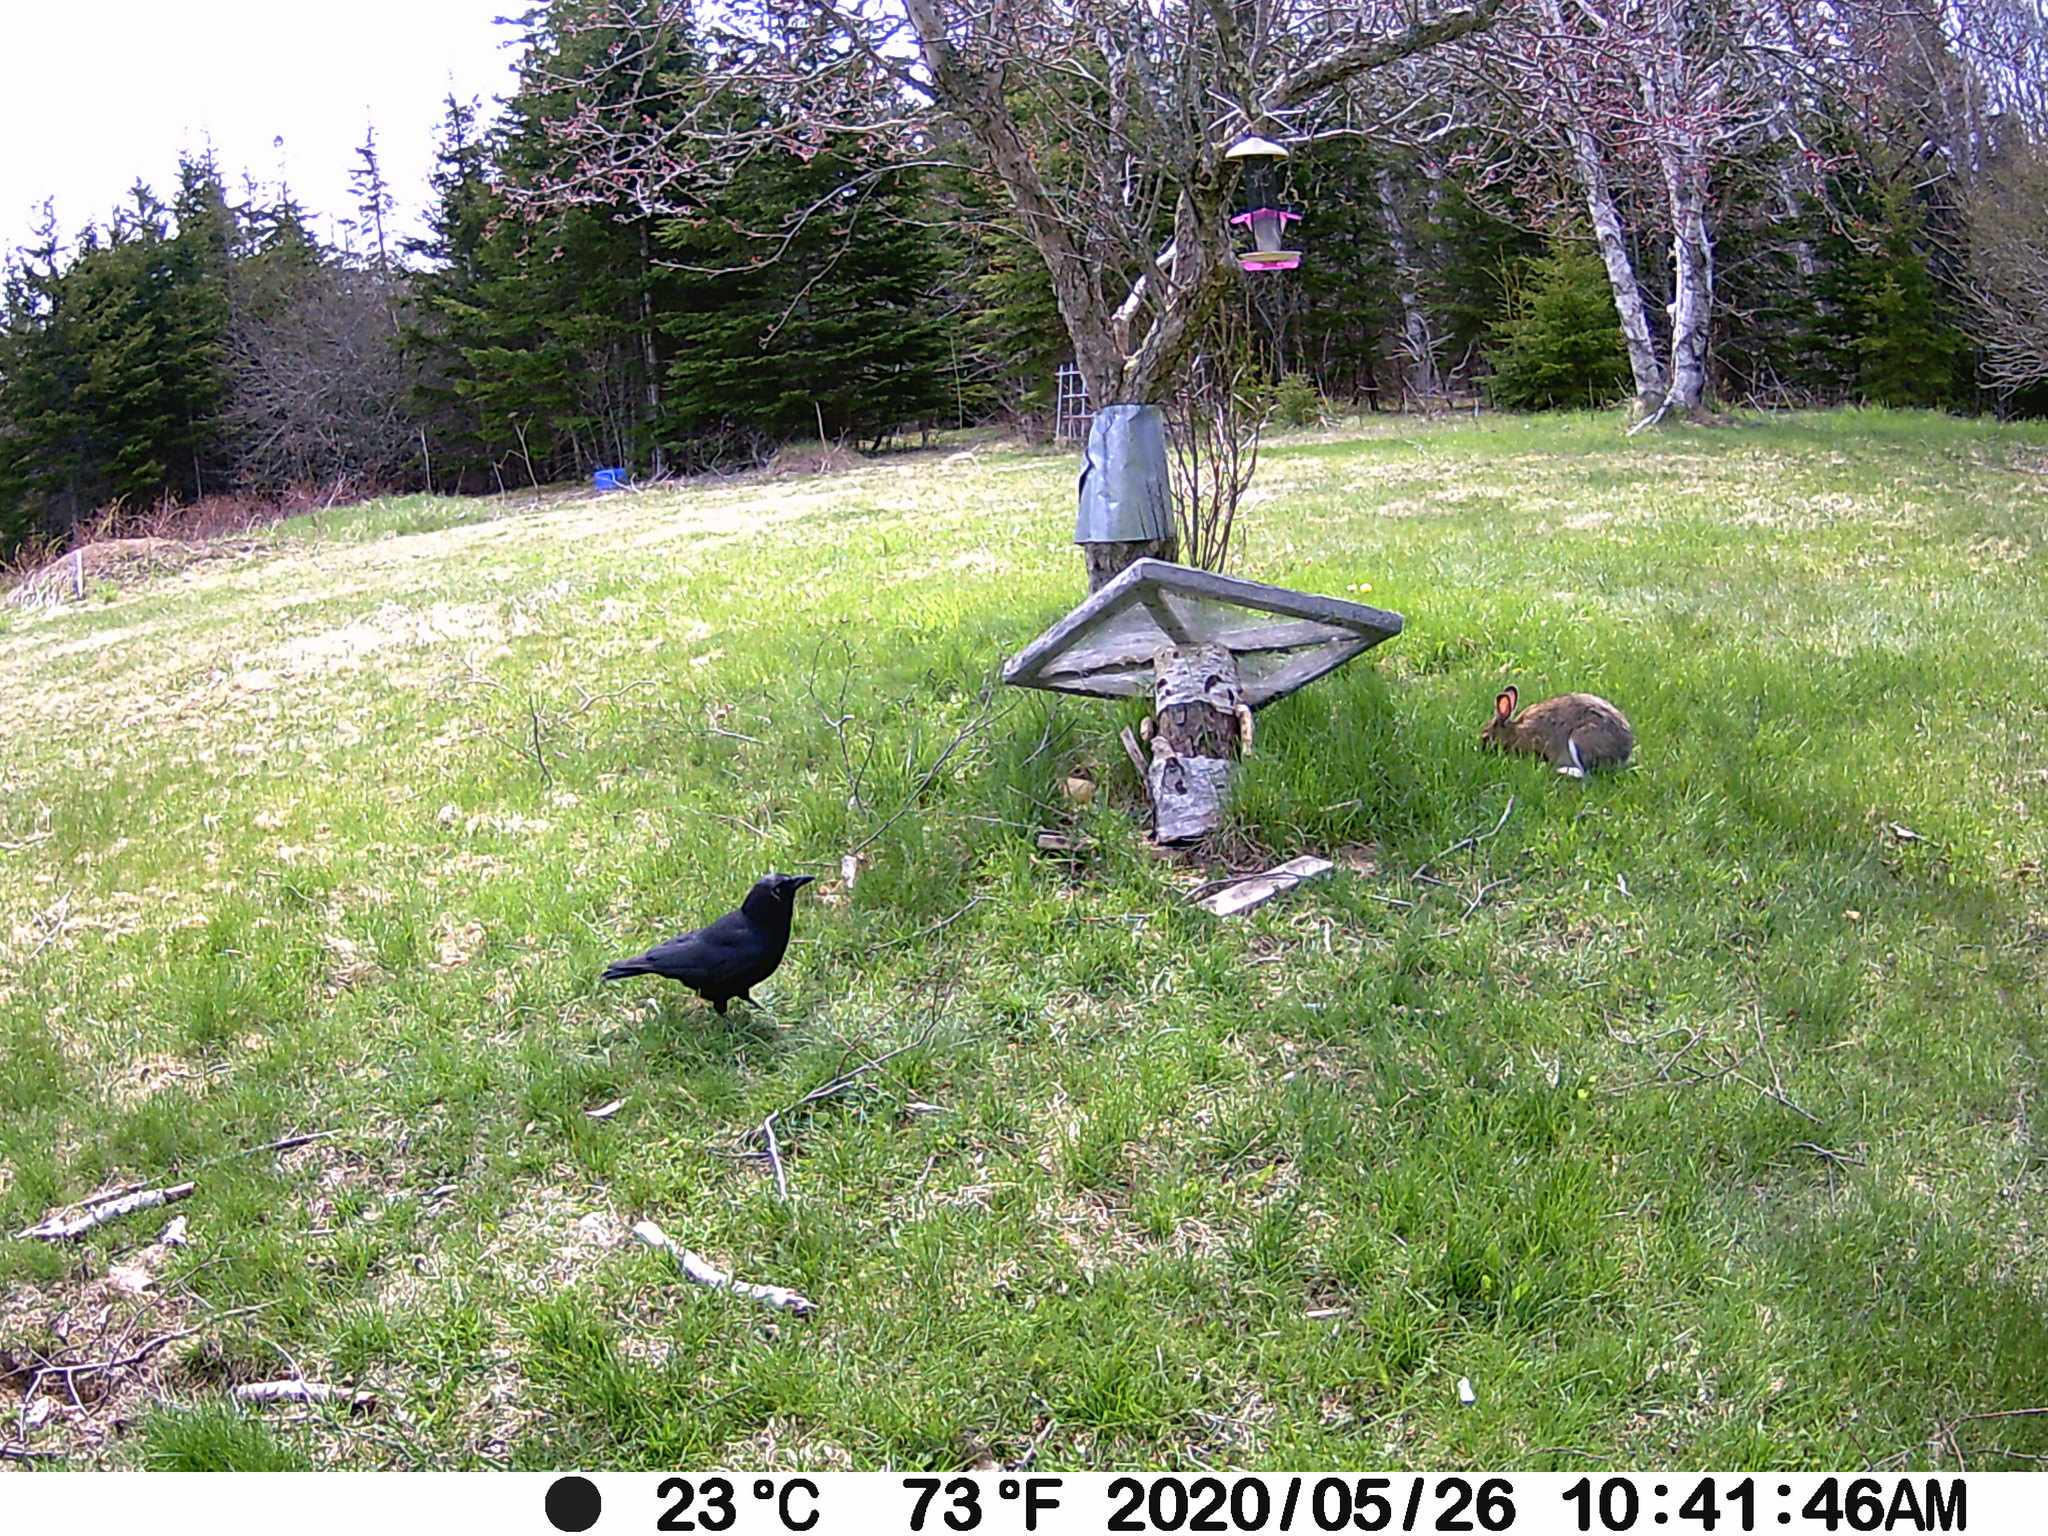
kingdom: Animalia
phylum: Chordata
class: Mammalia
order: Lagomorpha
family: Leporidae
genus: Lepus
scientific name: Lepus americanus
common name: Snowshoe hare
